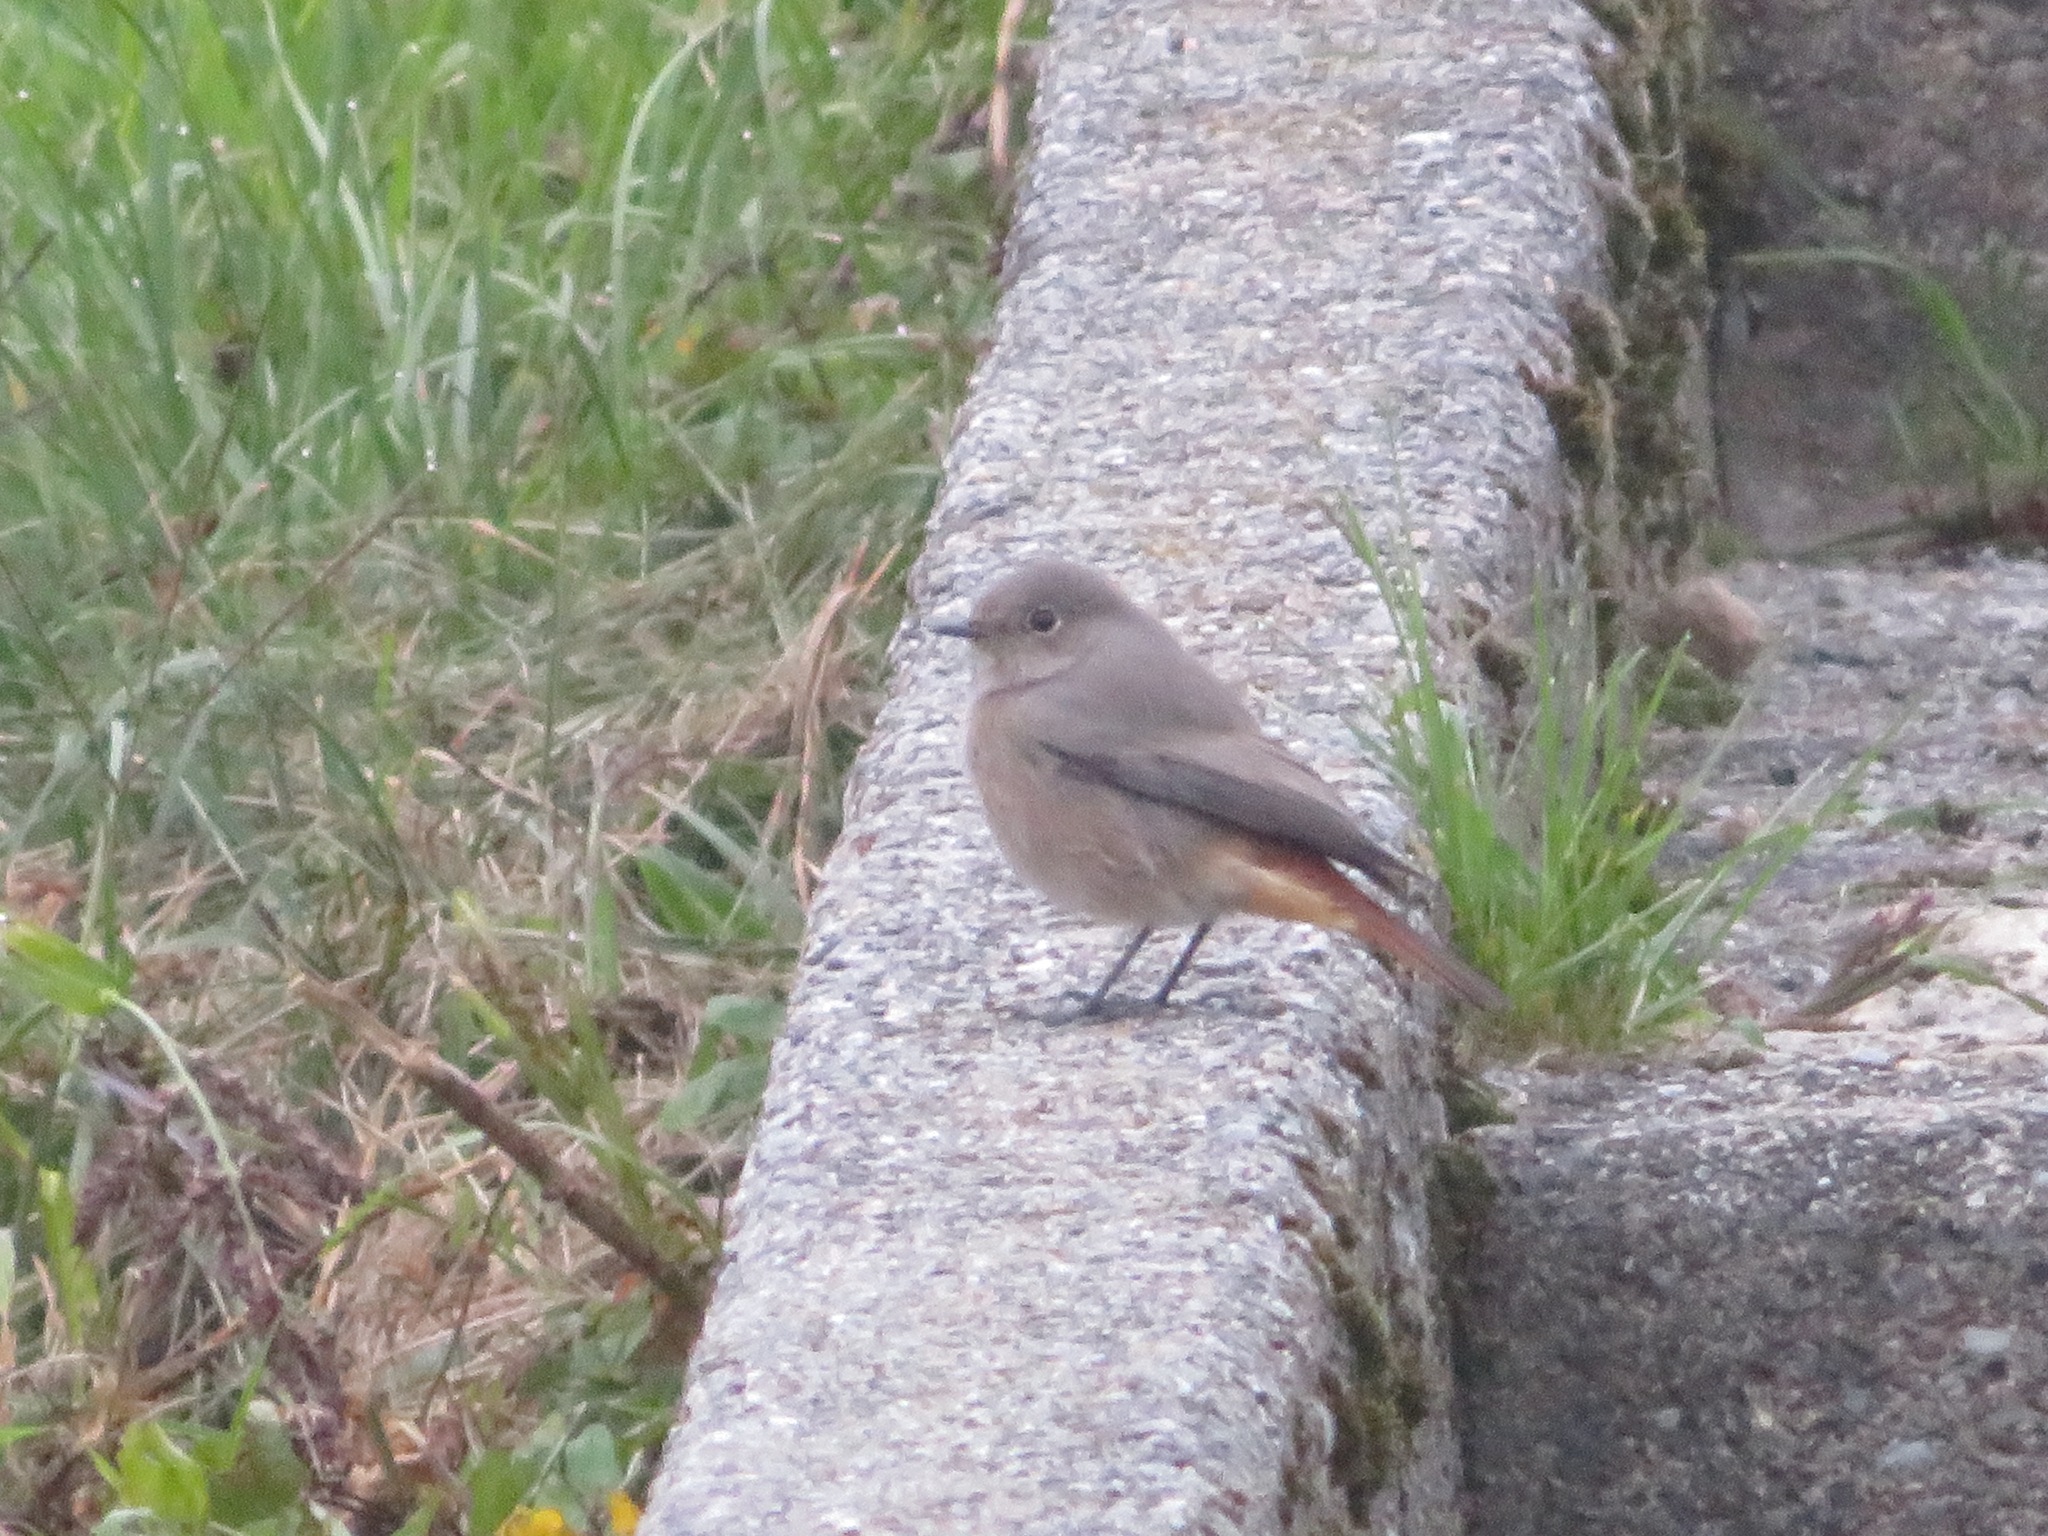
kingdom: Animalia
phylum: Chordata
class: Aves
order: Passeriformes
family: Muscicapidae
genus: Phoenicurus
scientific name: Phoenicurus ochruros
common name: Black redstart
